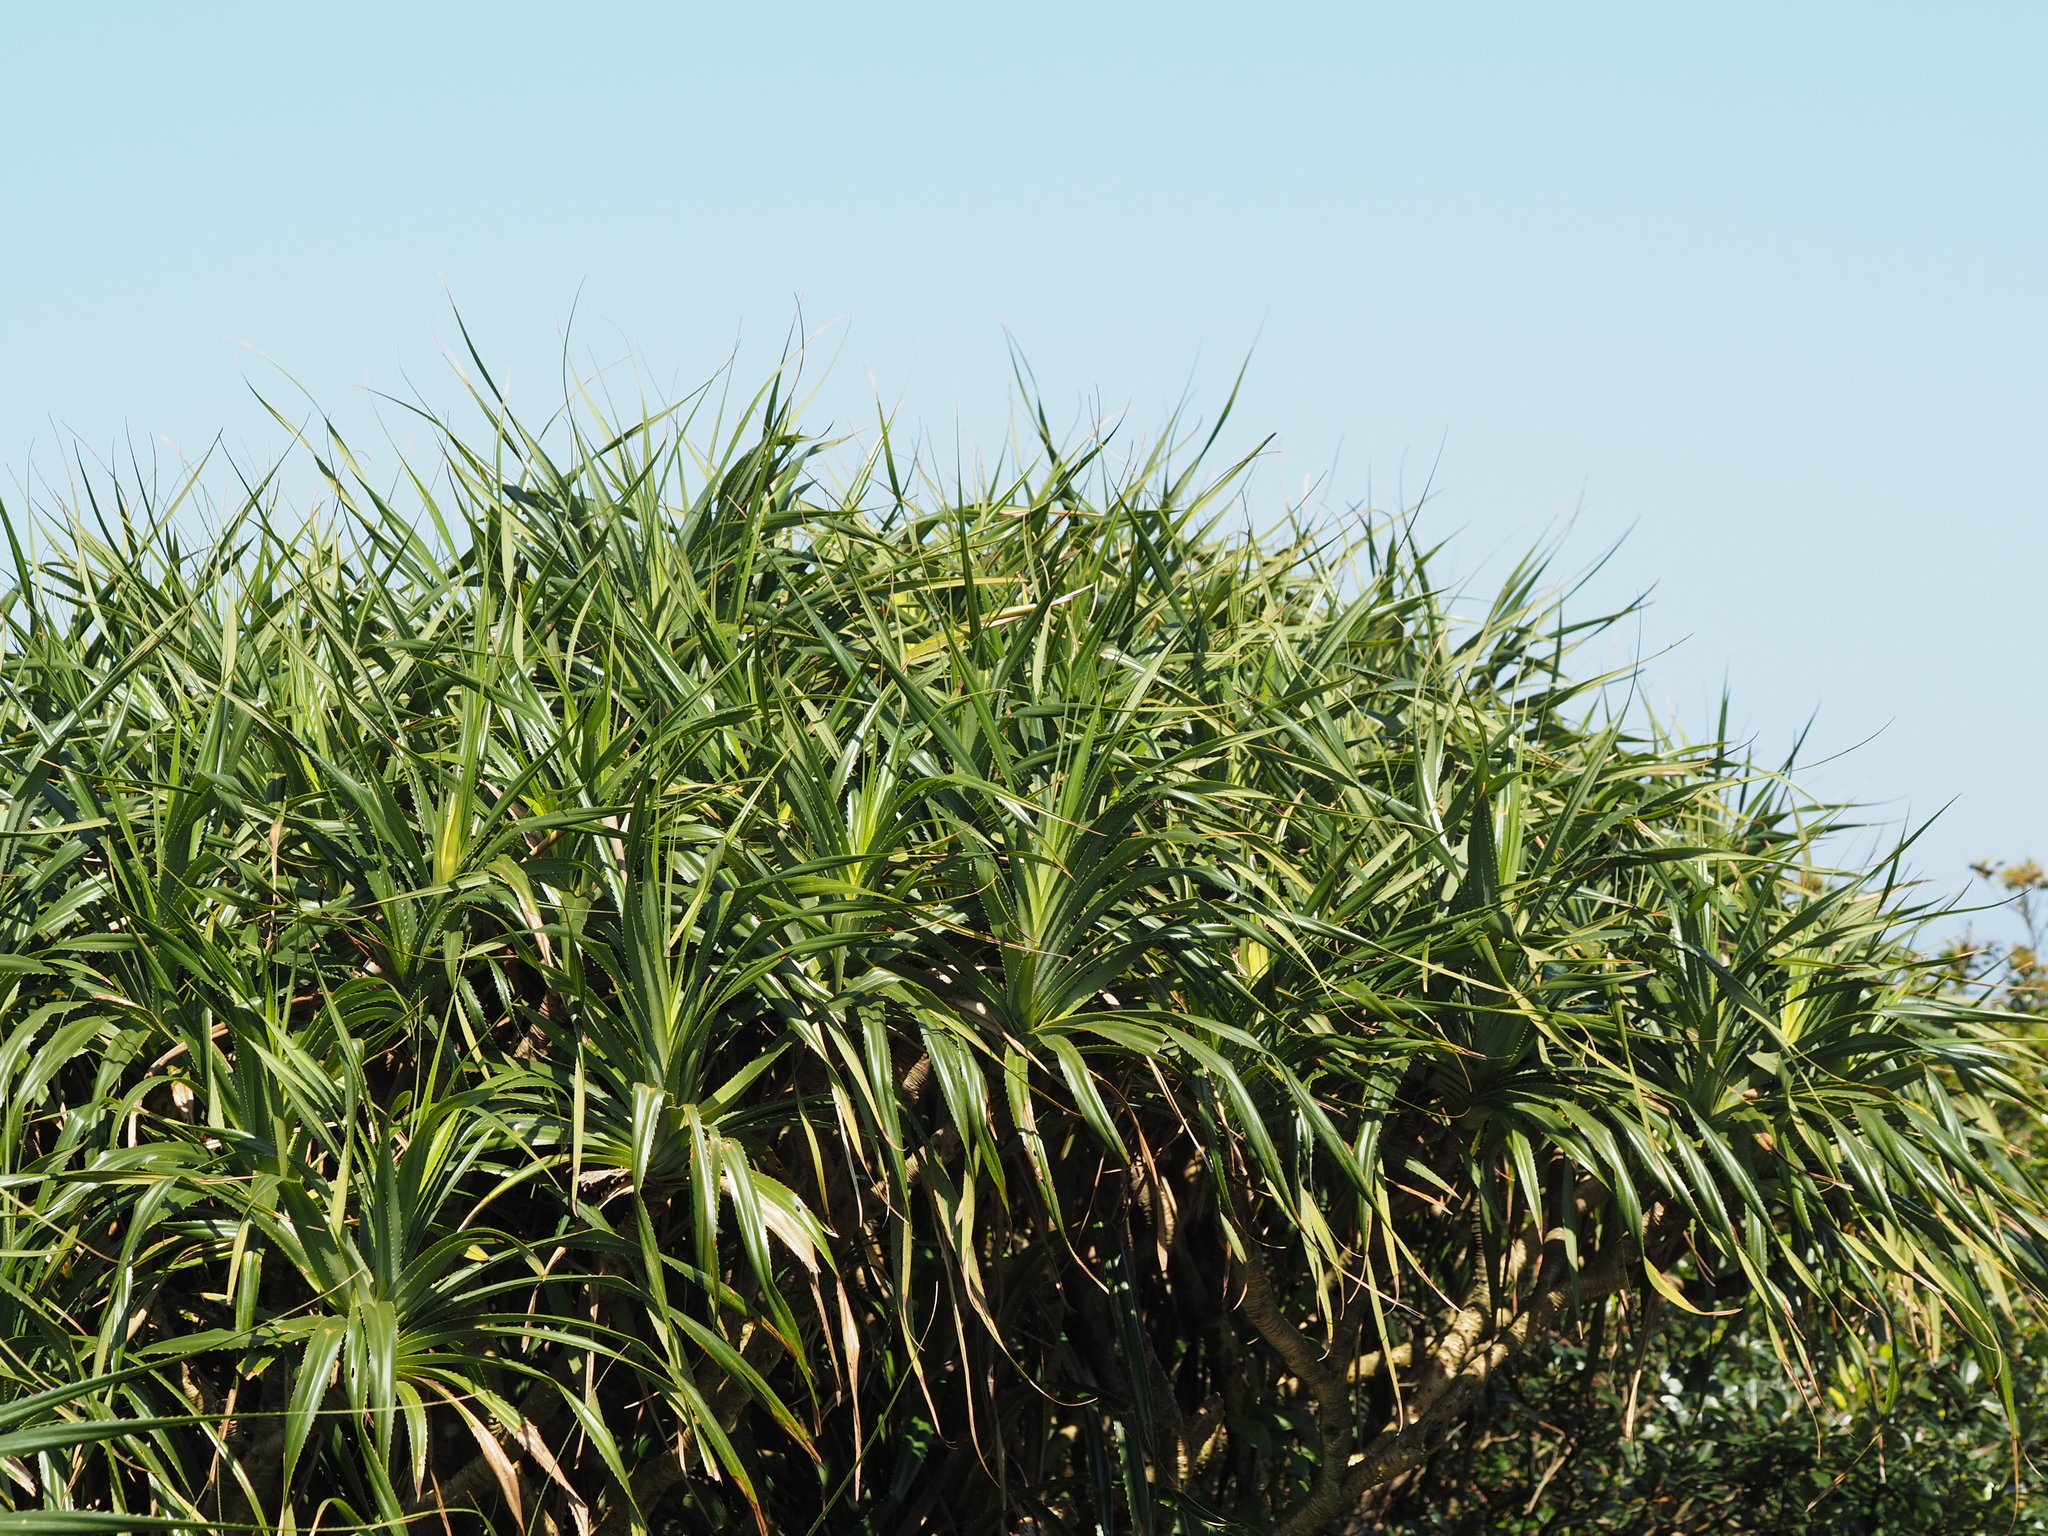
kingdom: Plantae
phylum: Tracheophyta
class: Liliopsida
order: Pandanales
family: Pandanaceae
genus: Pandanus
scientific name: Pandanus odorifer
